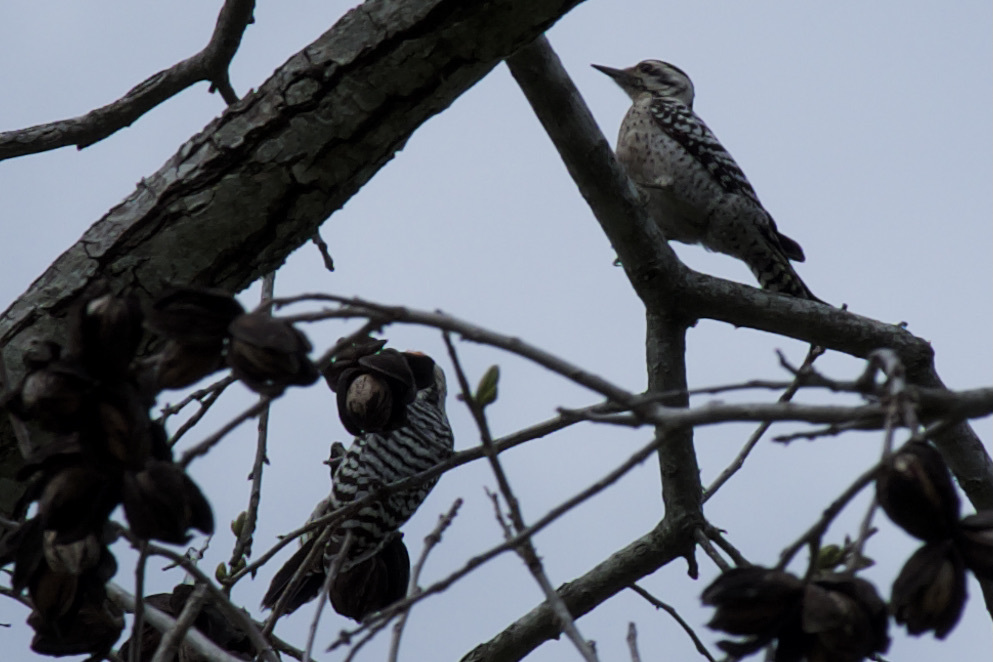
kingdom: Animalia
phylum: Chordata
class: Aves
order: Piciformes
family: Picidae
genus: Dryobates
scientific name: Dryobates scalaris
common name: Ladder-backed woodpecker
